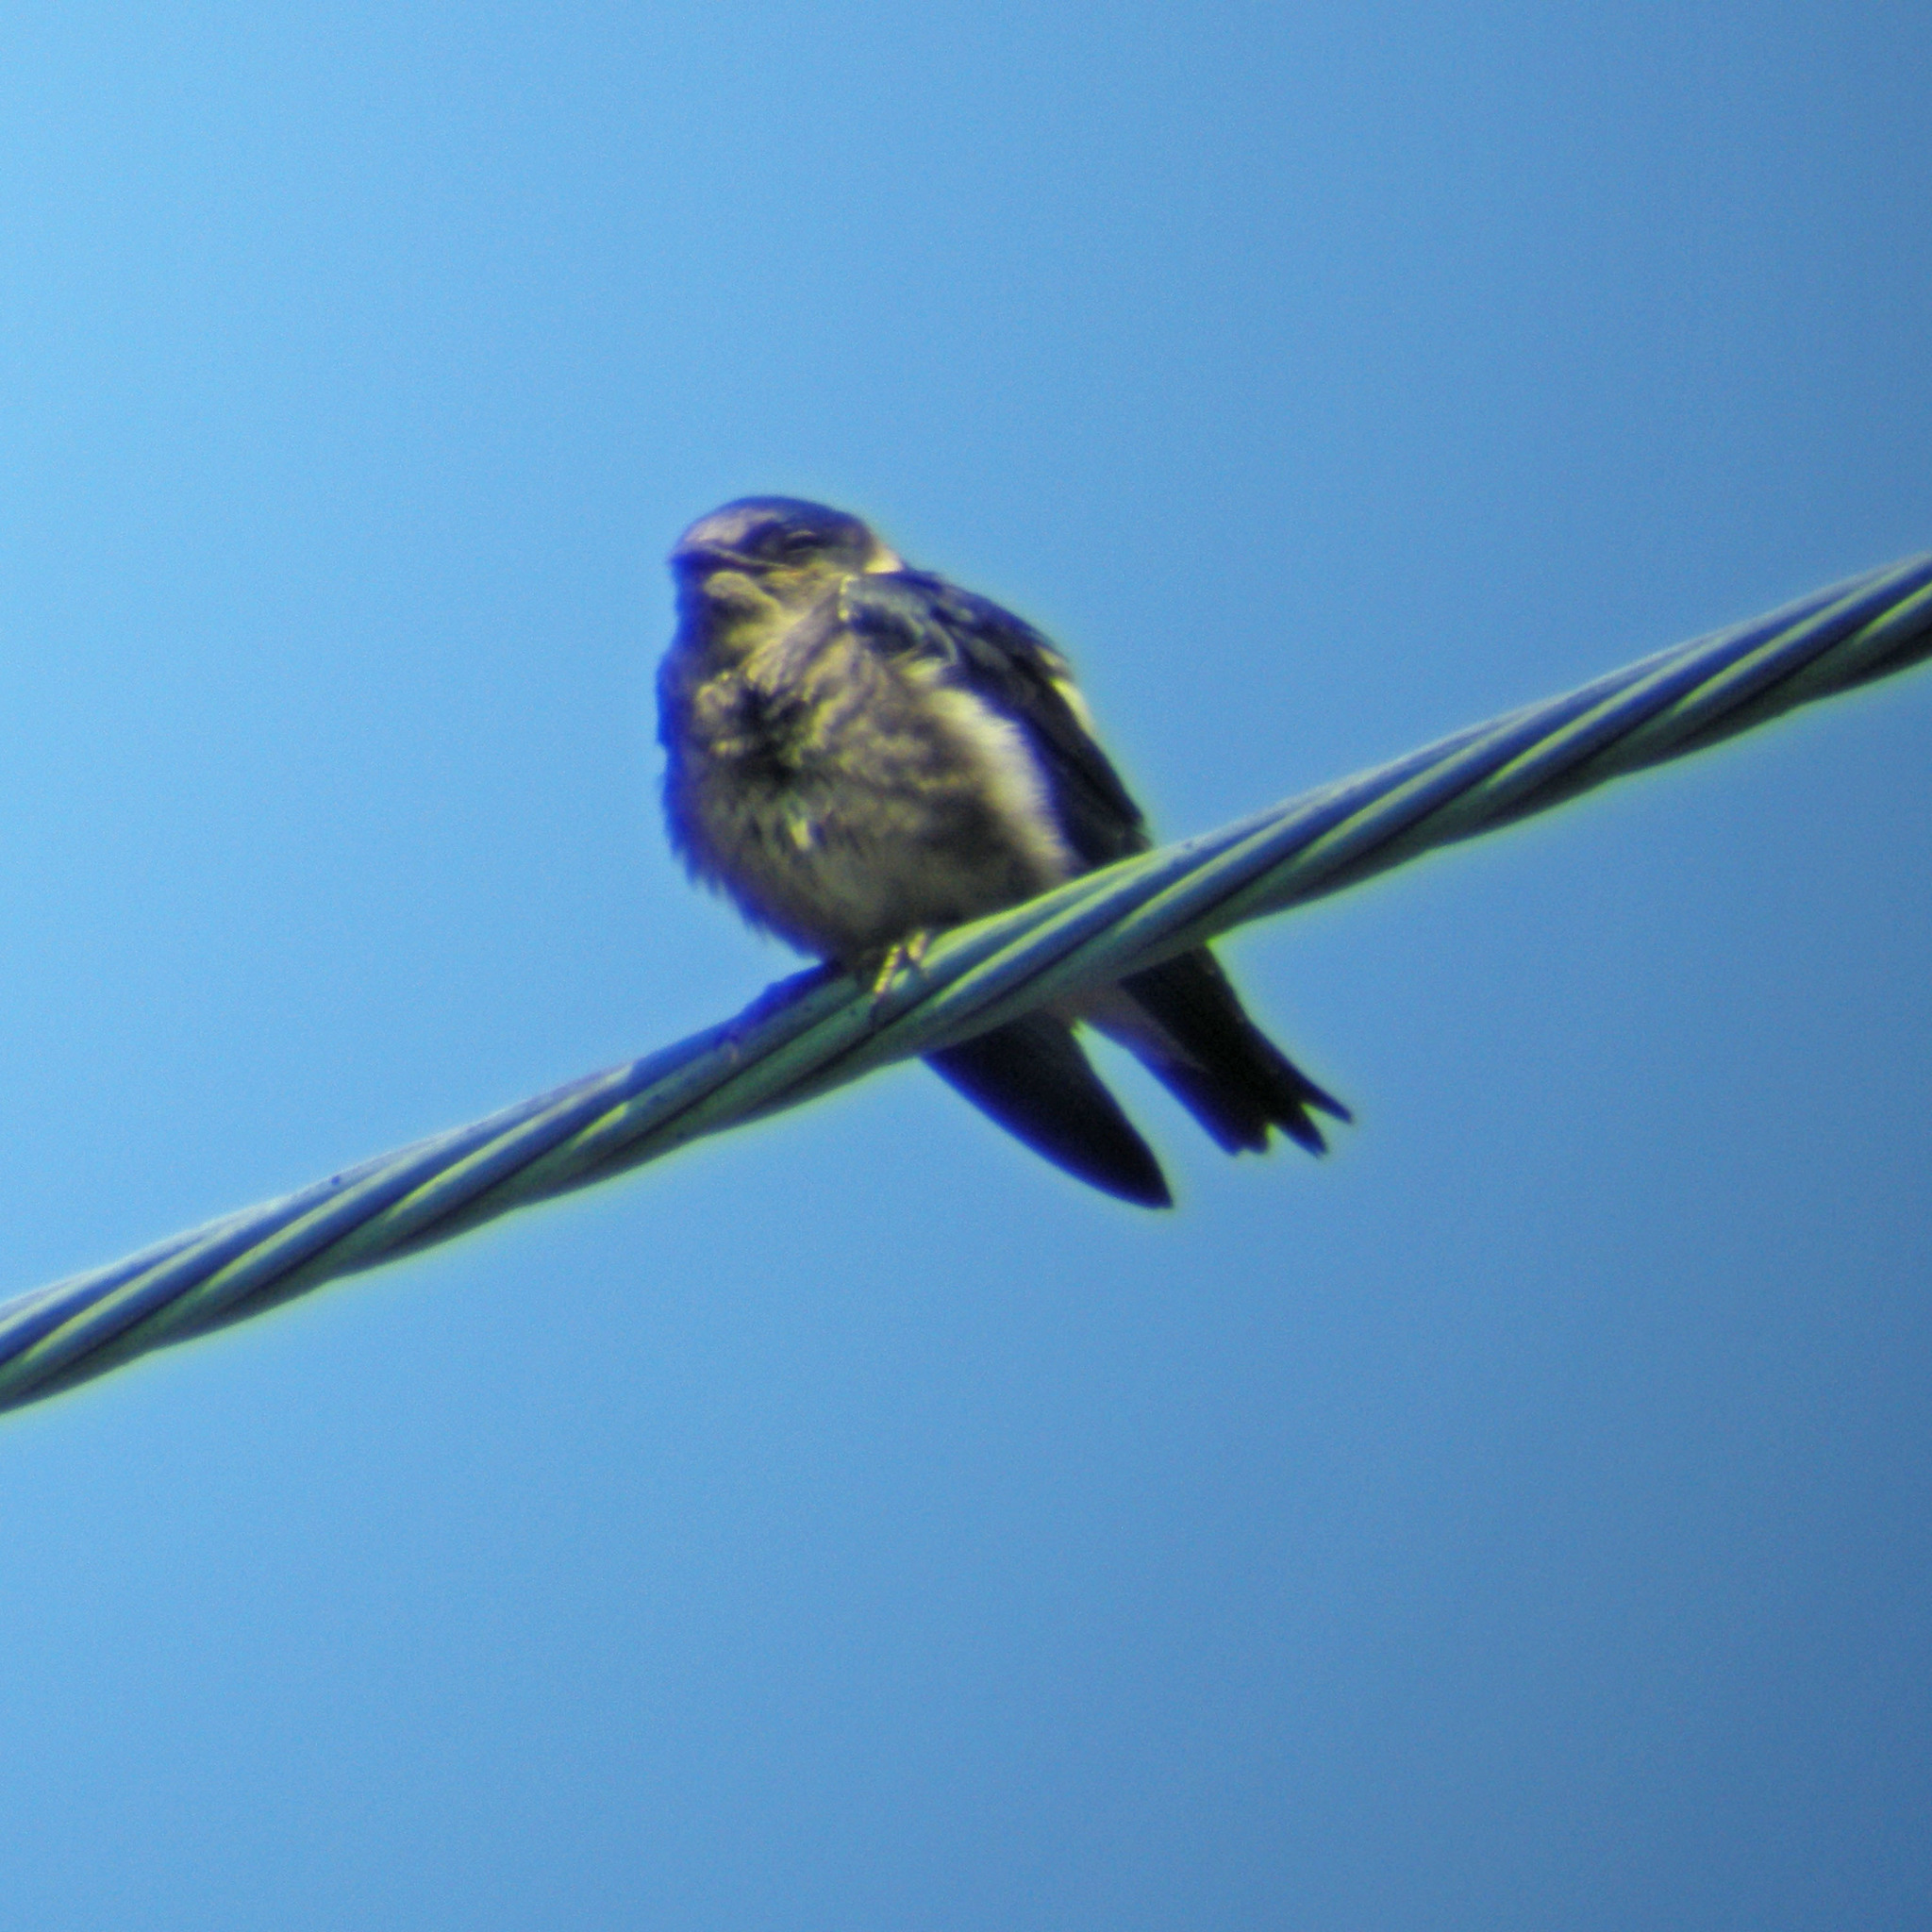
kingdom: Animalia
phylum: Chordata
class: Aves
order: Passeriformes
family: Hirundinidae
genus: Progne
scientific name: Progne subis
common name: Purple martin
